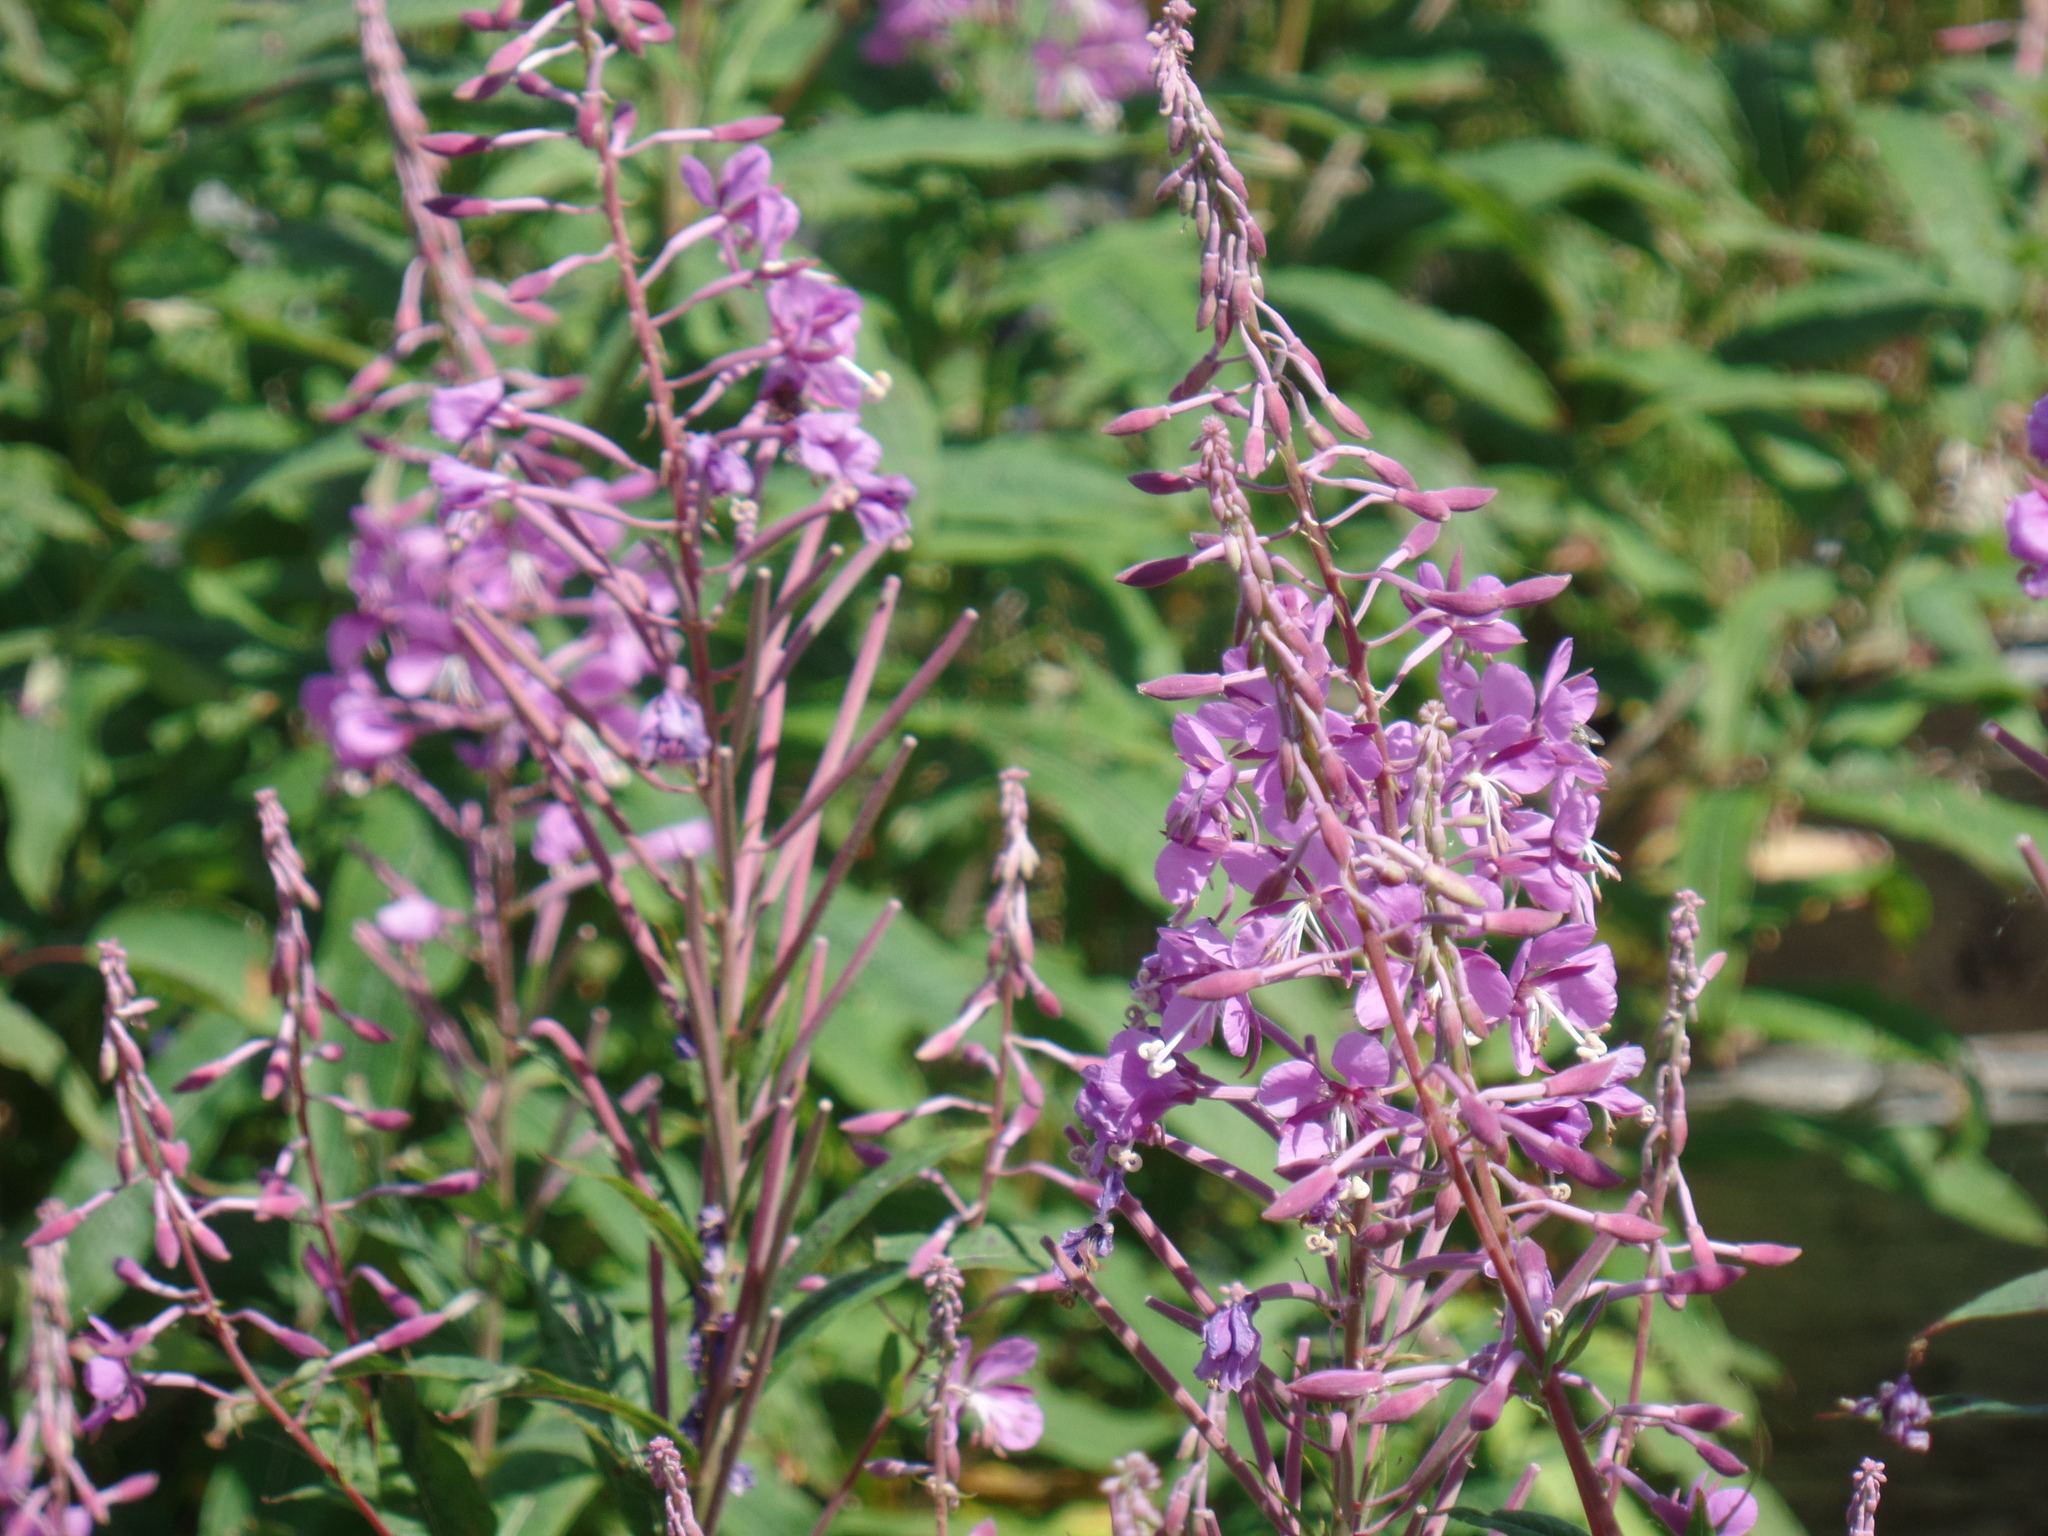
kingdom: Plantae
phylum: Tracheophyta
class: Magnoliopsida
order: Myrtales
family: Onagraceae
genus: Chamaenerion
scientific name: Chamaenerion angustifolium
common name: Fireweed
